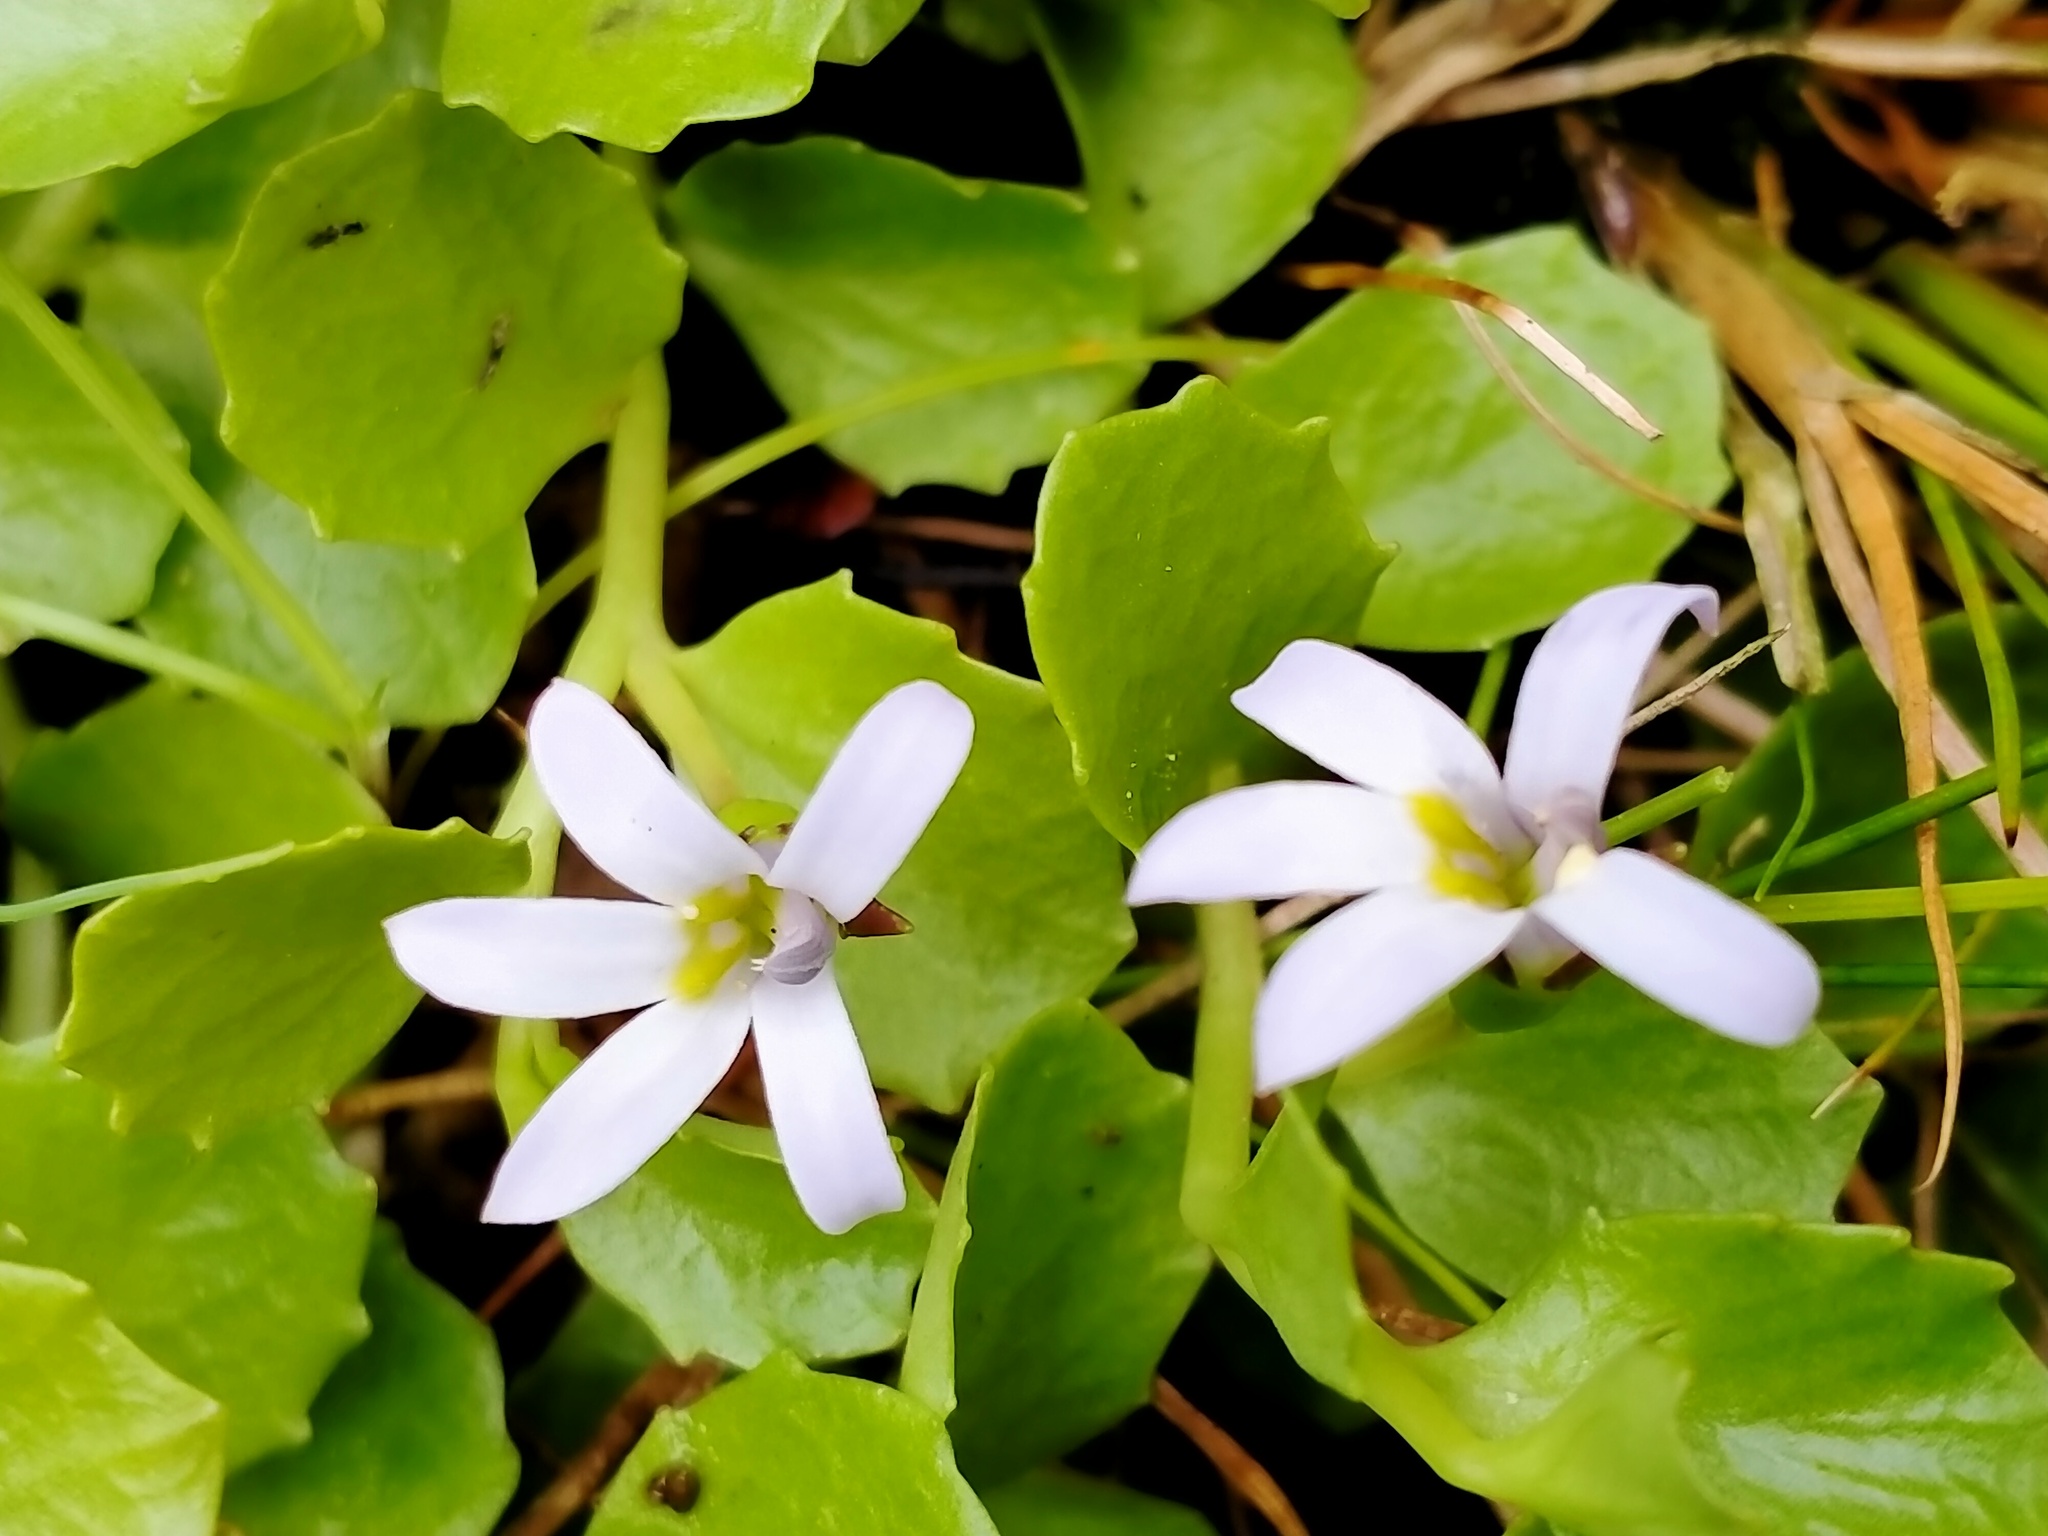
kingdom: Plantae
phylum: Tracheophyta
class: Magnoliopsida
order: Asterales
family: Campanulaceae
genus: Lobelia
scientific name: Lobelia arenaria
